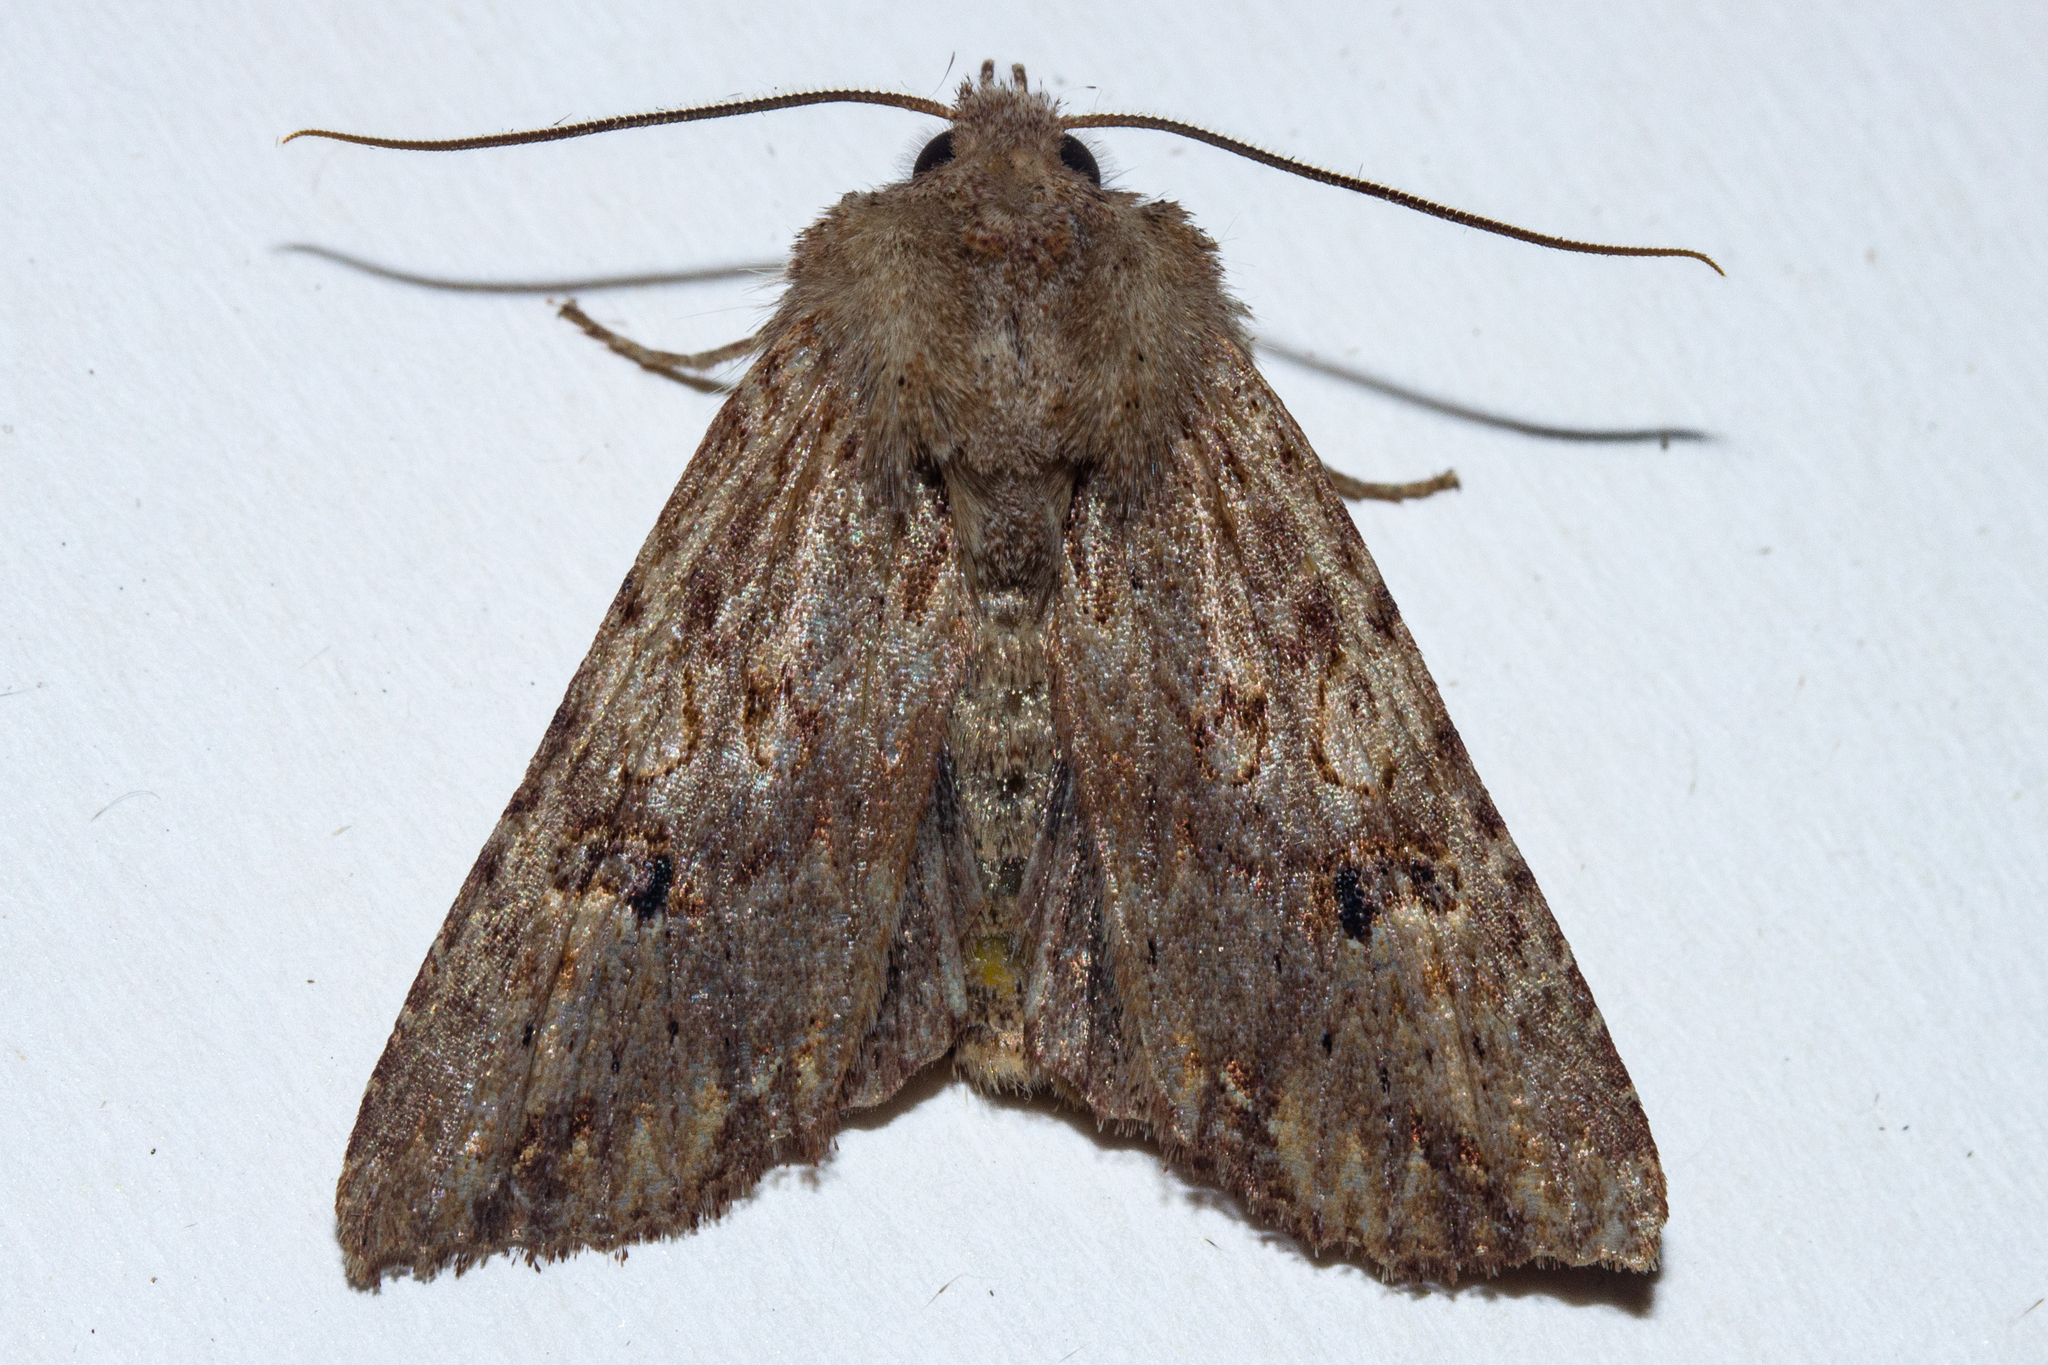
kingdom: Animalia
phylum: Arthropoda
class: Insecta
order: Lepidoptera
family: Noctuidae
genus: Ichneutica
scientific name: Ichneutica
